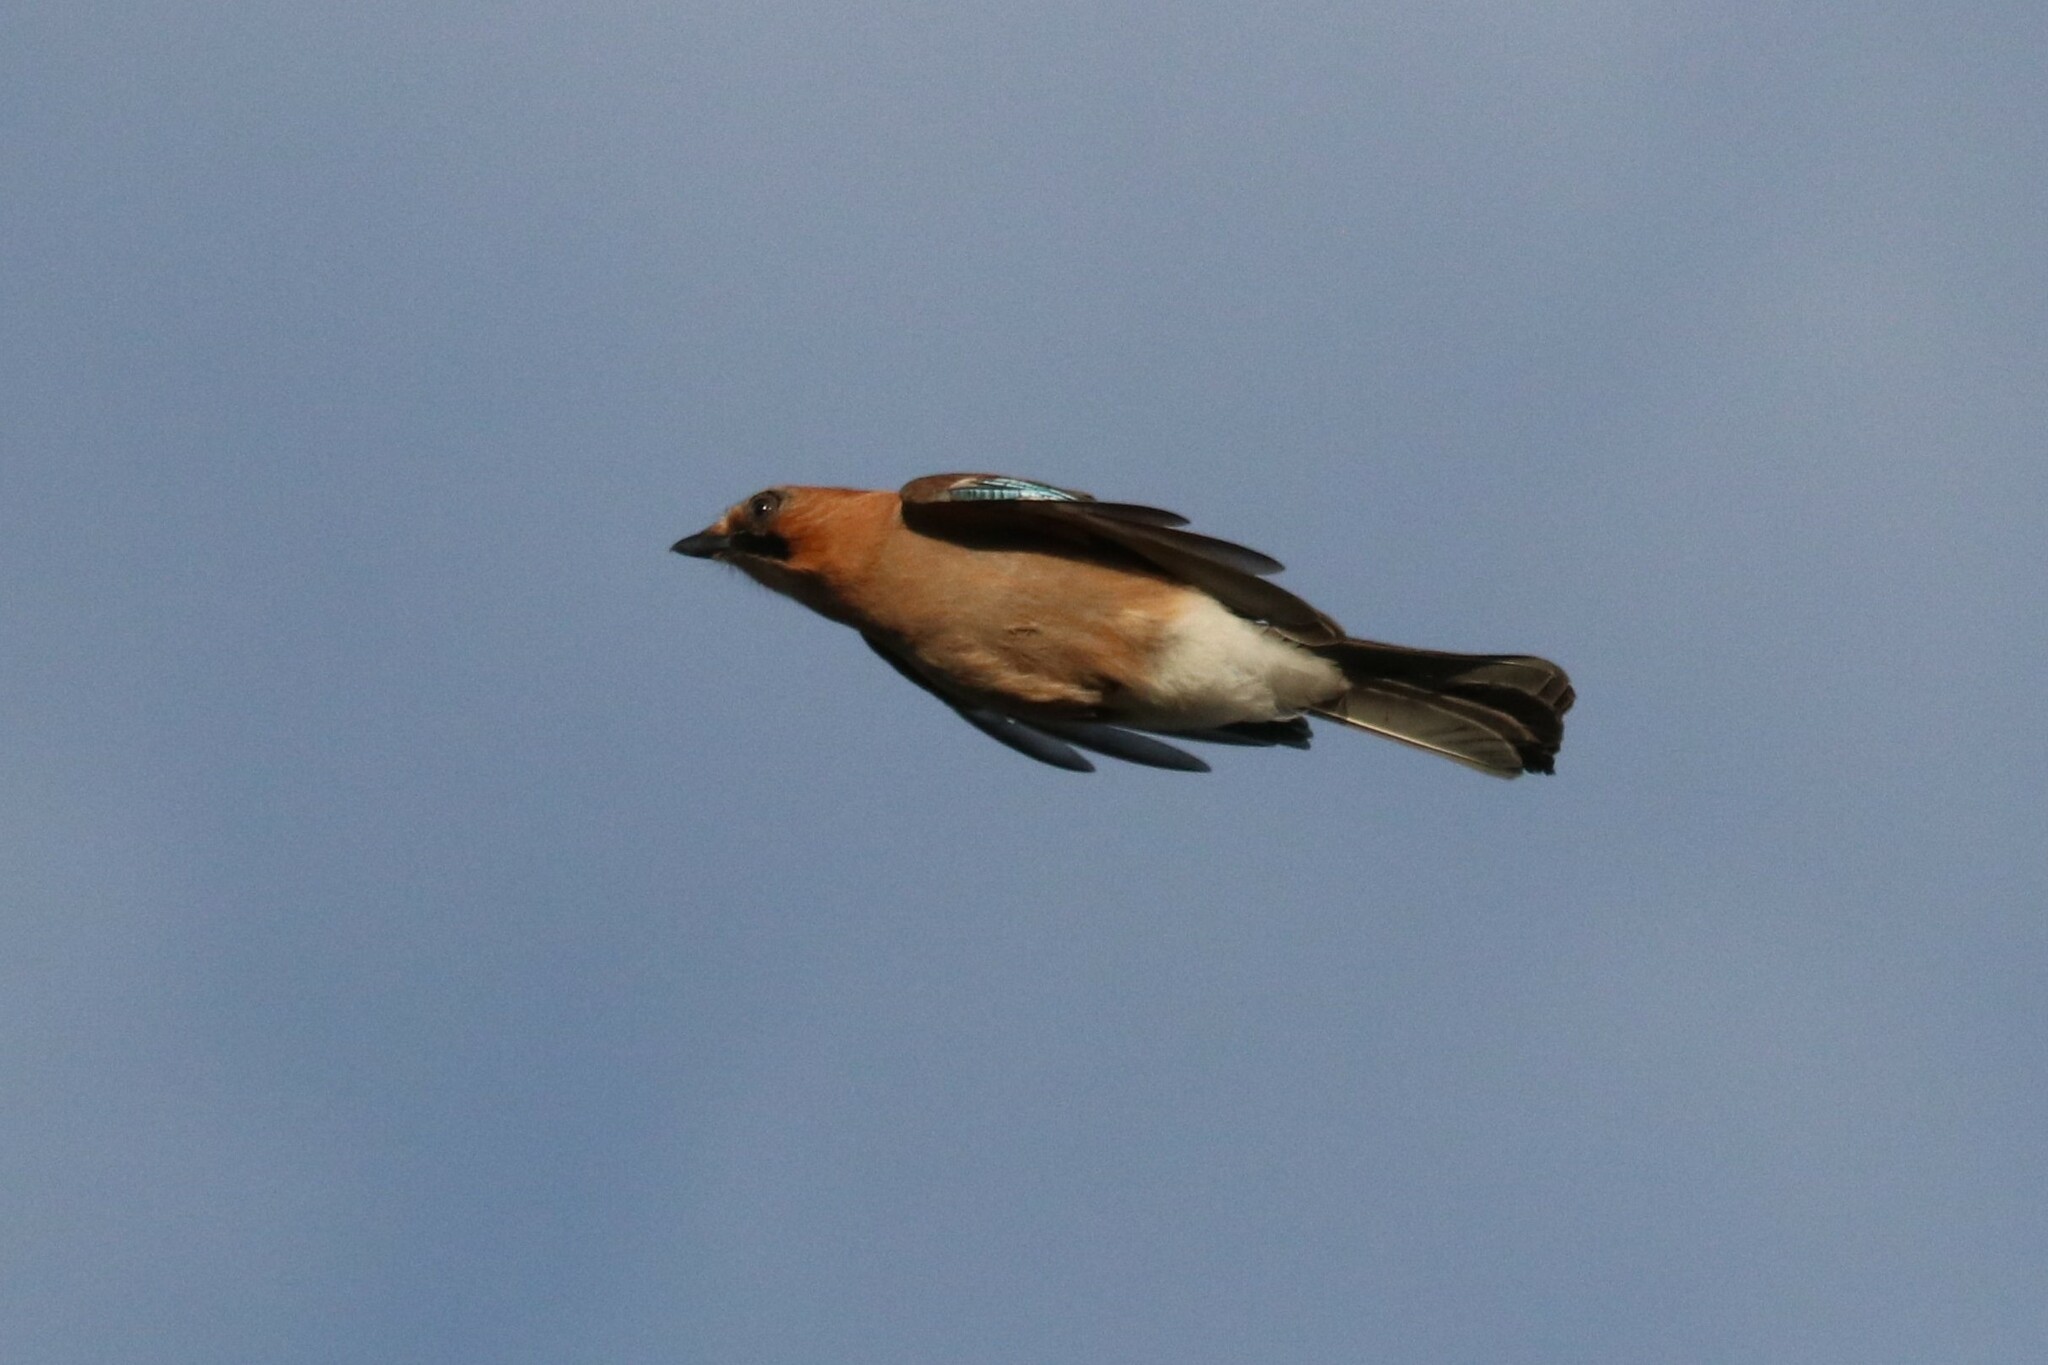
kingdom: Animalia
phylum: Chordata
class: Aves
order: Passeriformes
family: Corvidae
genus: Garrulus
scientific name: Garrulus glandarius
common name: Eurasian jay
